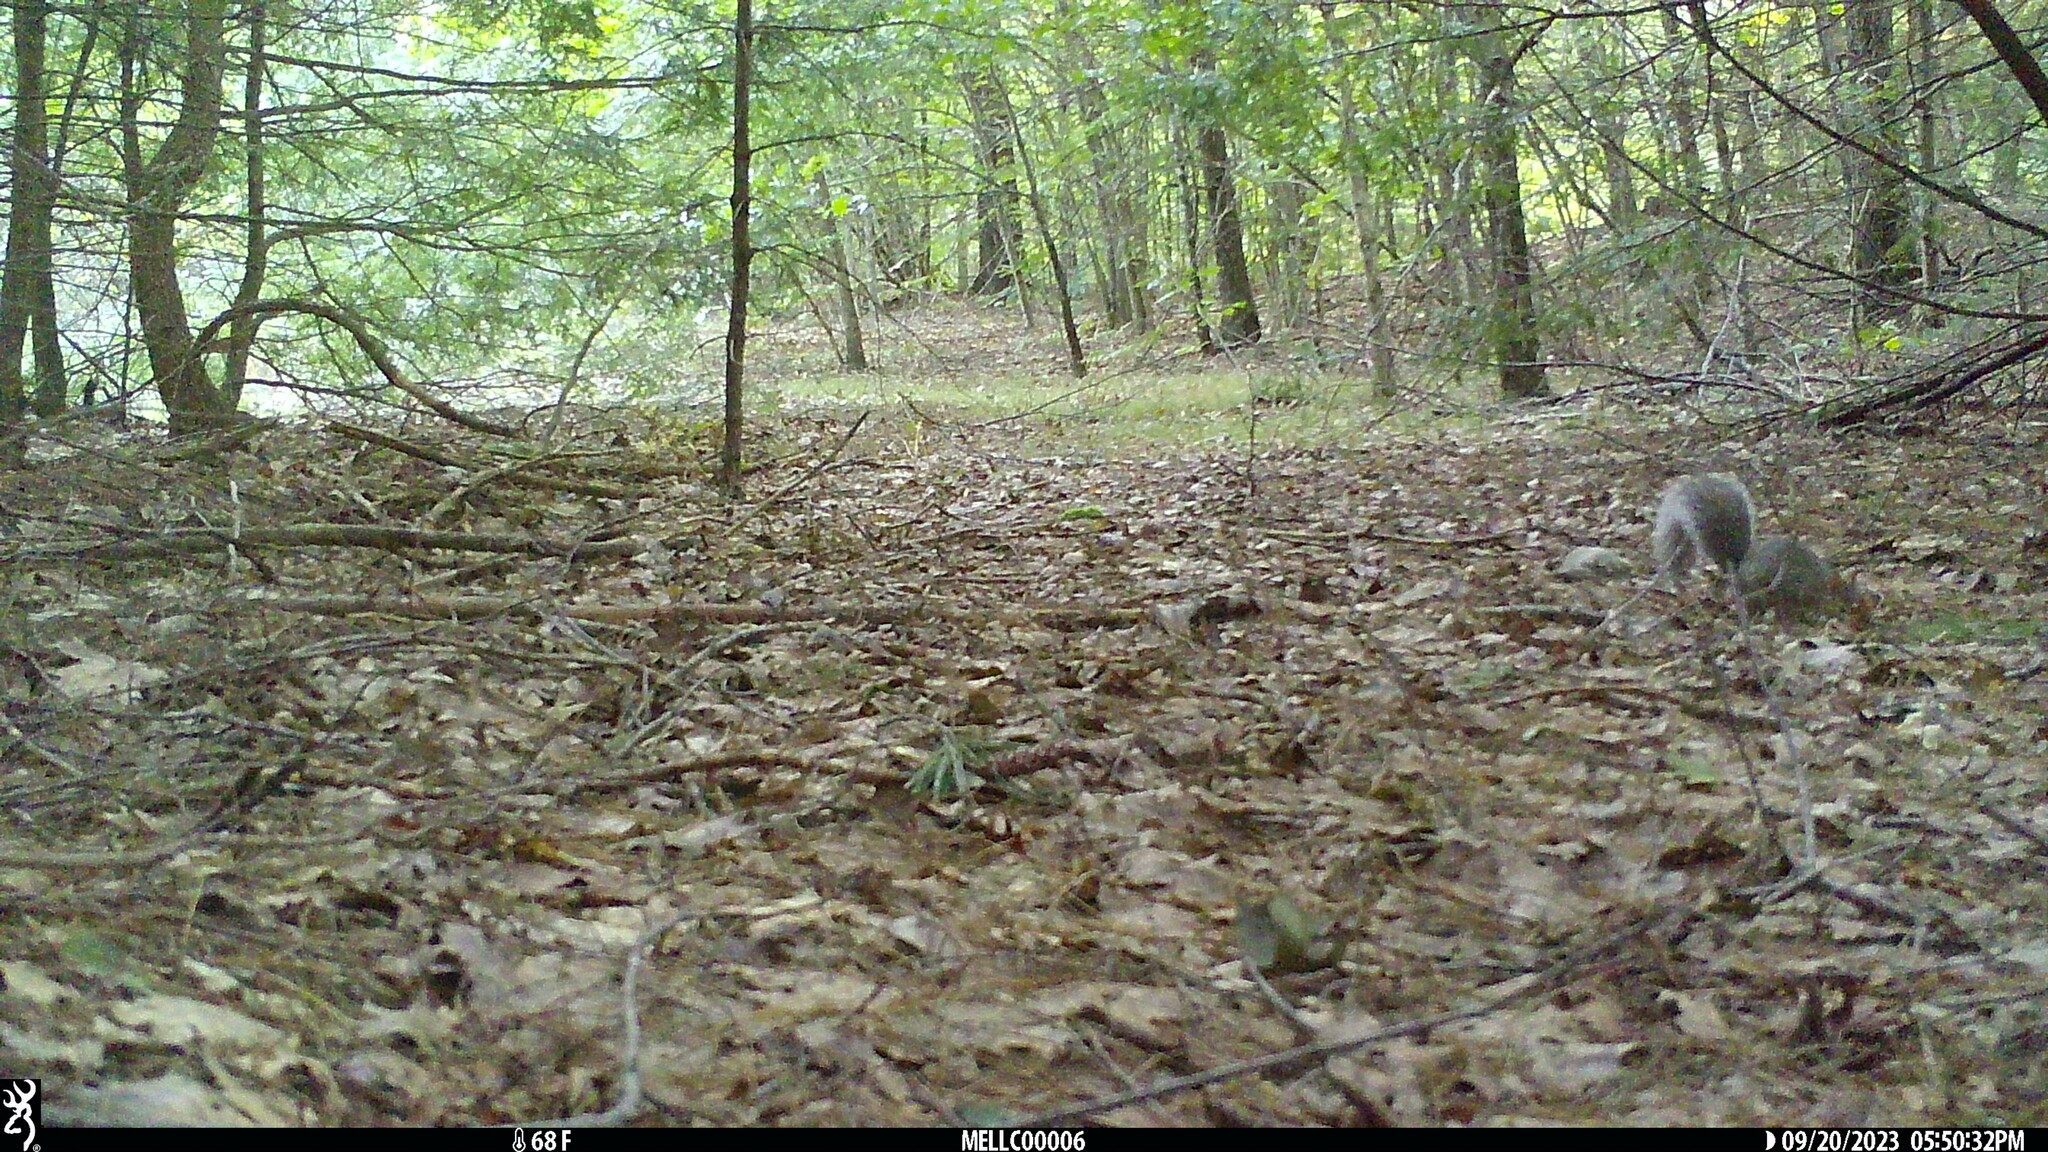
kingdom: Animalia
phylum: Chordata
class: Mammalia
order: Rodentia
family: Sciuridae
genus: Sciurus
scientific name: Sciurus carolinensis
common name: Eastern gray squirrel
